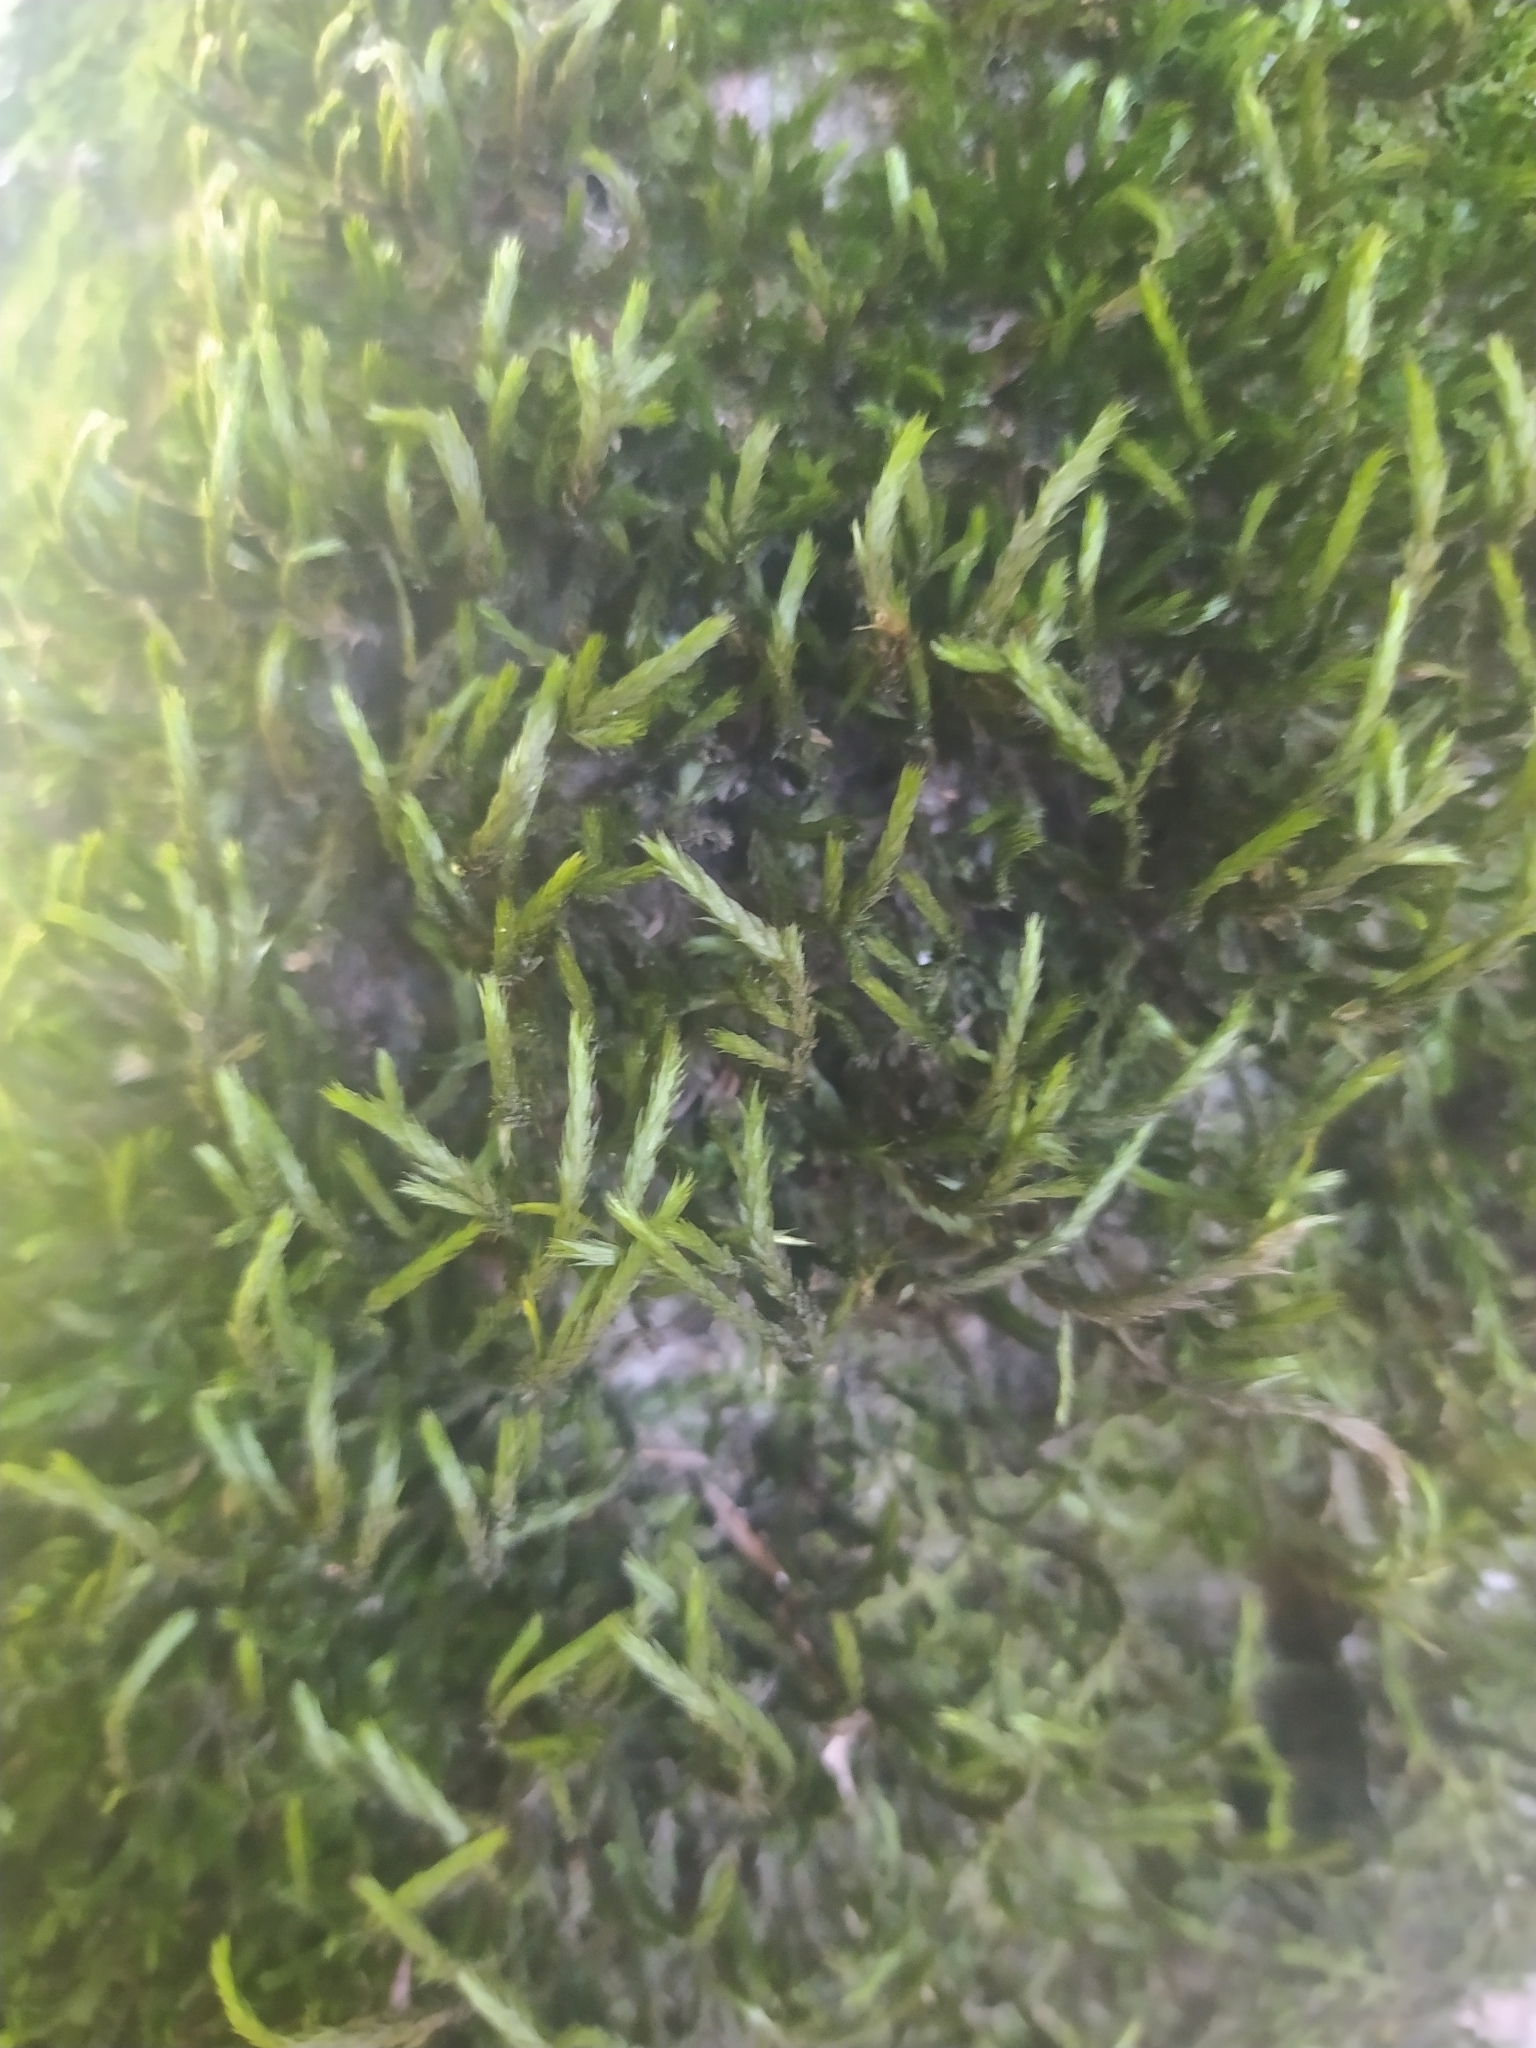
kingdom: Plantae
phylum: Bryophyta
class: Bryopsida
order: Hypnales
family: Leucodontaceae
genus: Leucodon
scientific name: Leucodon sciuroides
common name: Squirrel-tail moss
